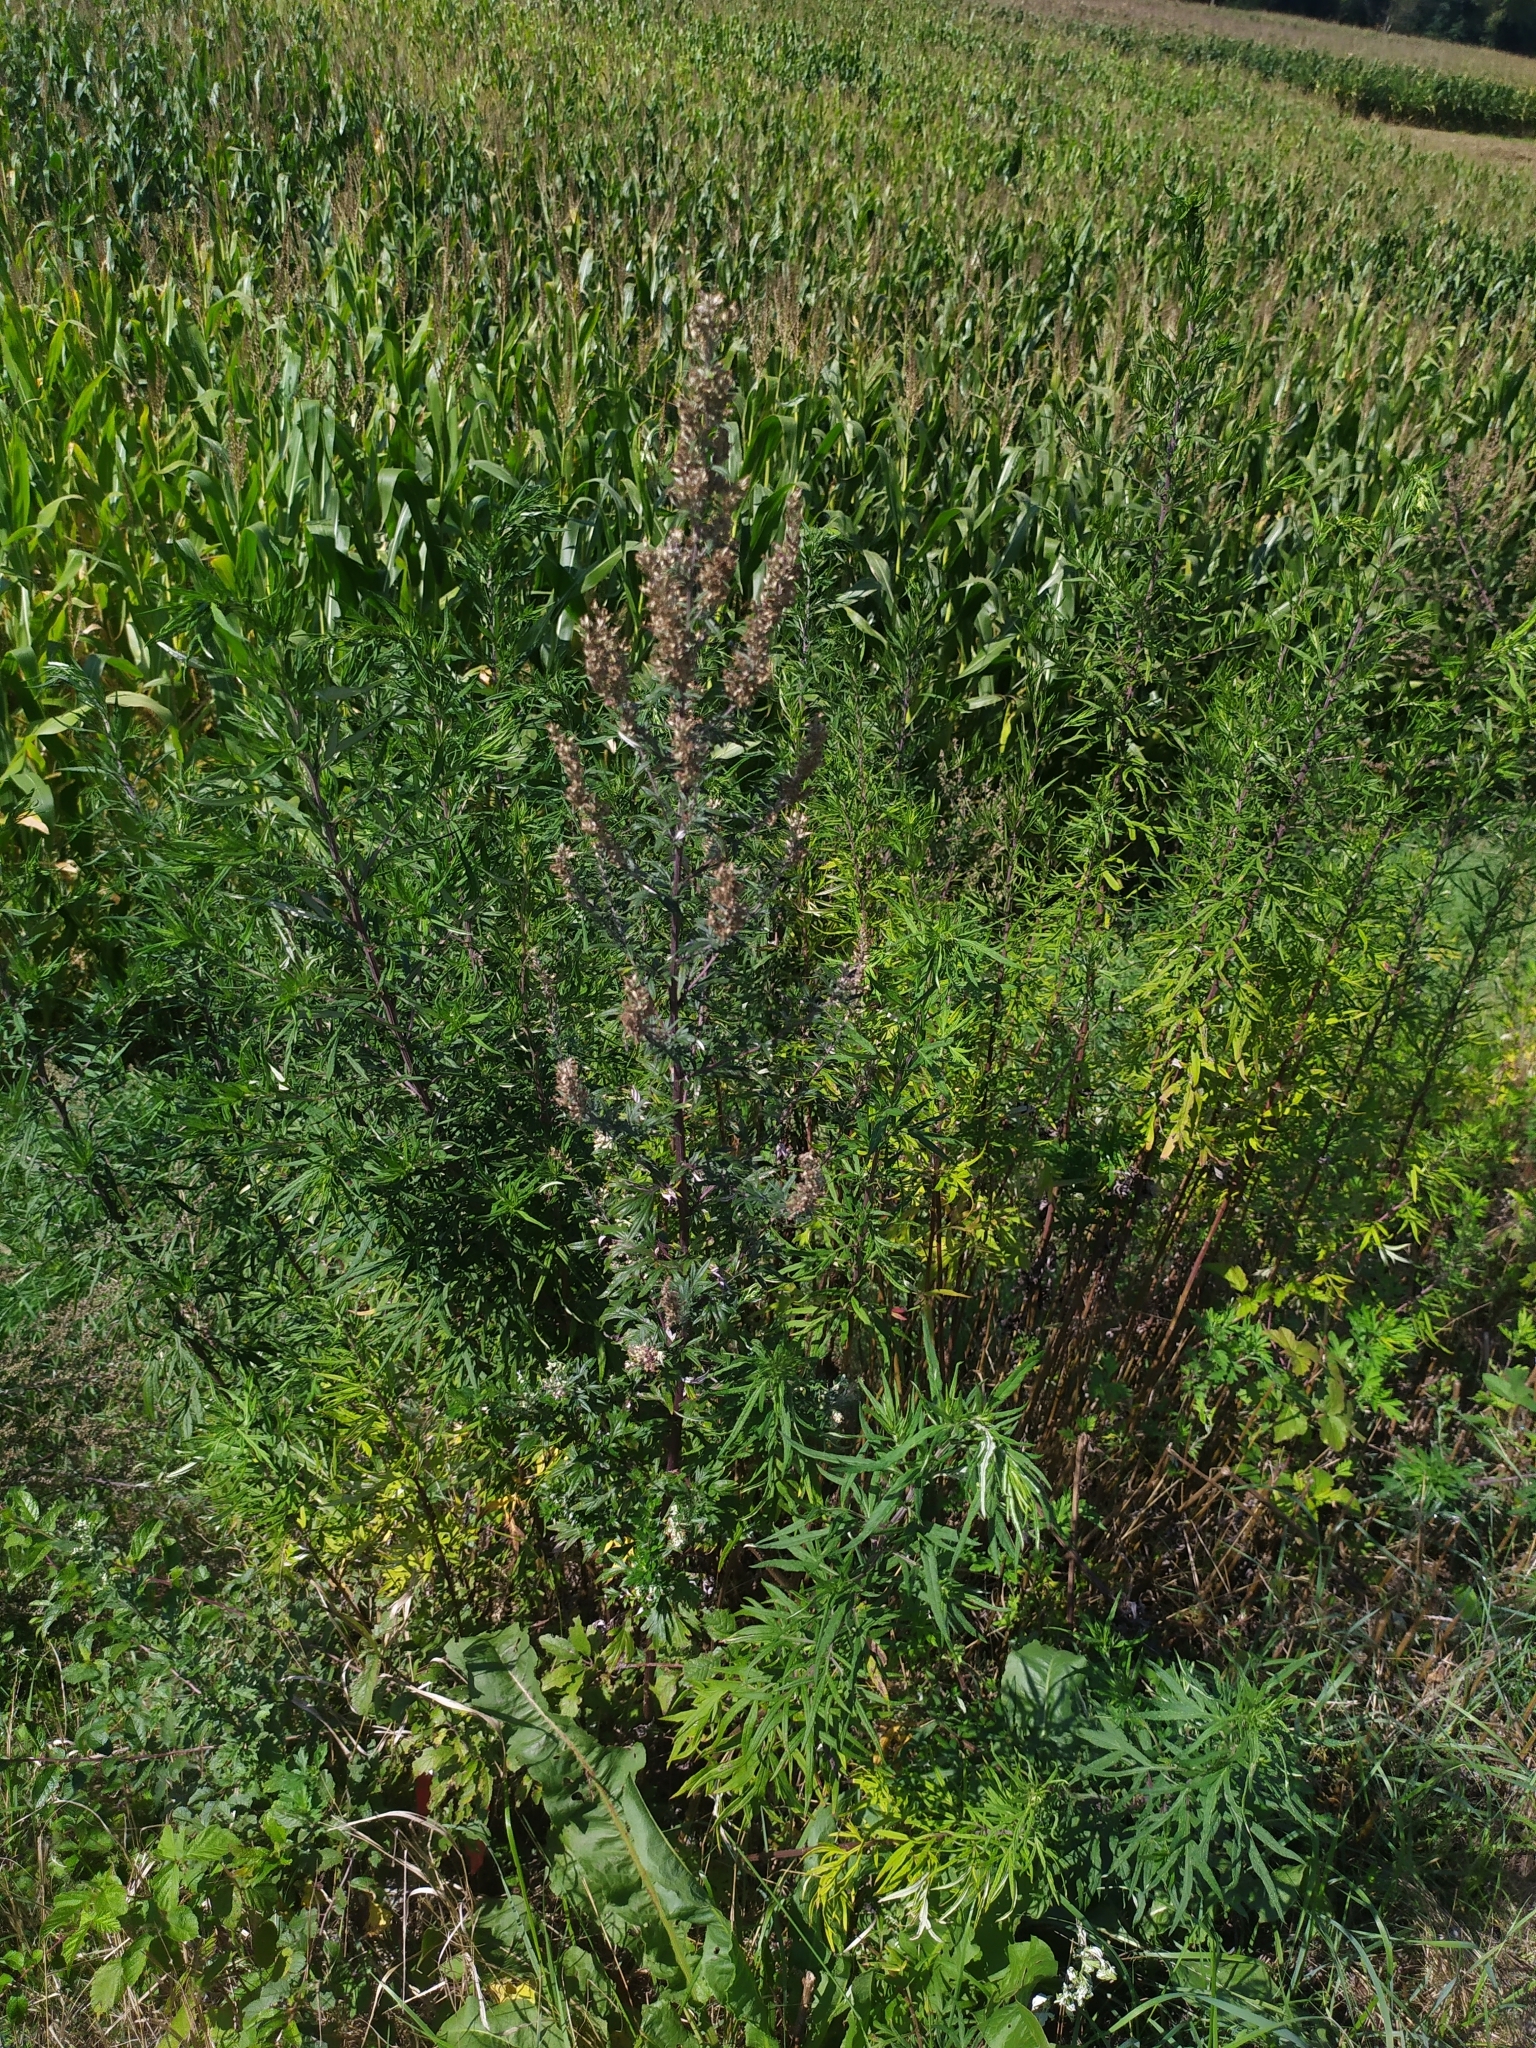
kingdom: Plantae
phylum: Tracheophyta
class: Magnoliopsida
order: Asterales
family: Asteraceae
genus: Artemisia
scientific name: Artemisia vulgaris
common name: Mugwort
